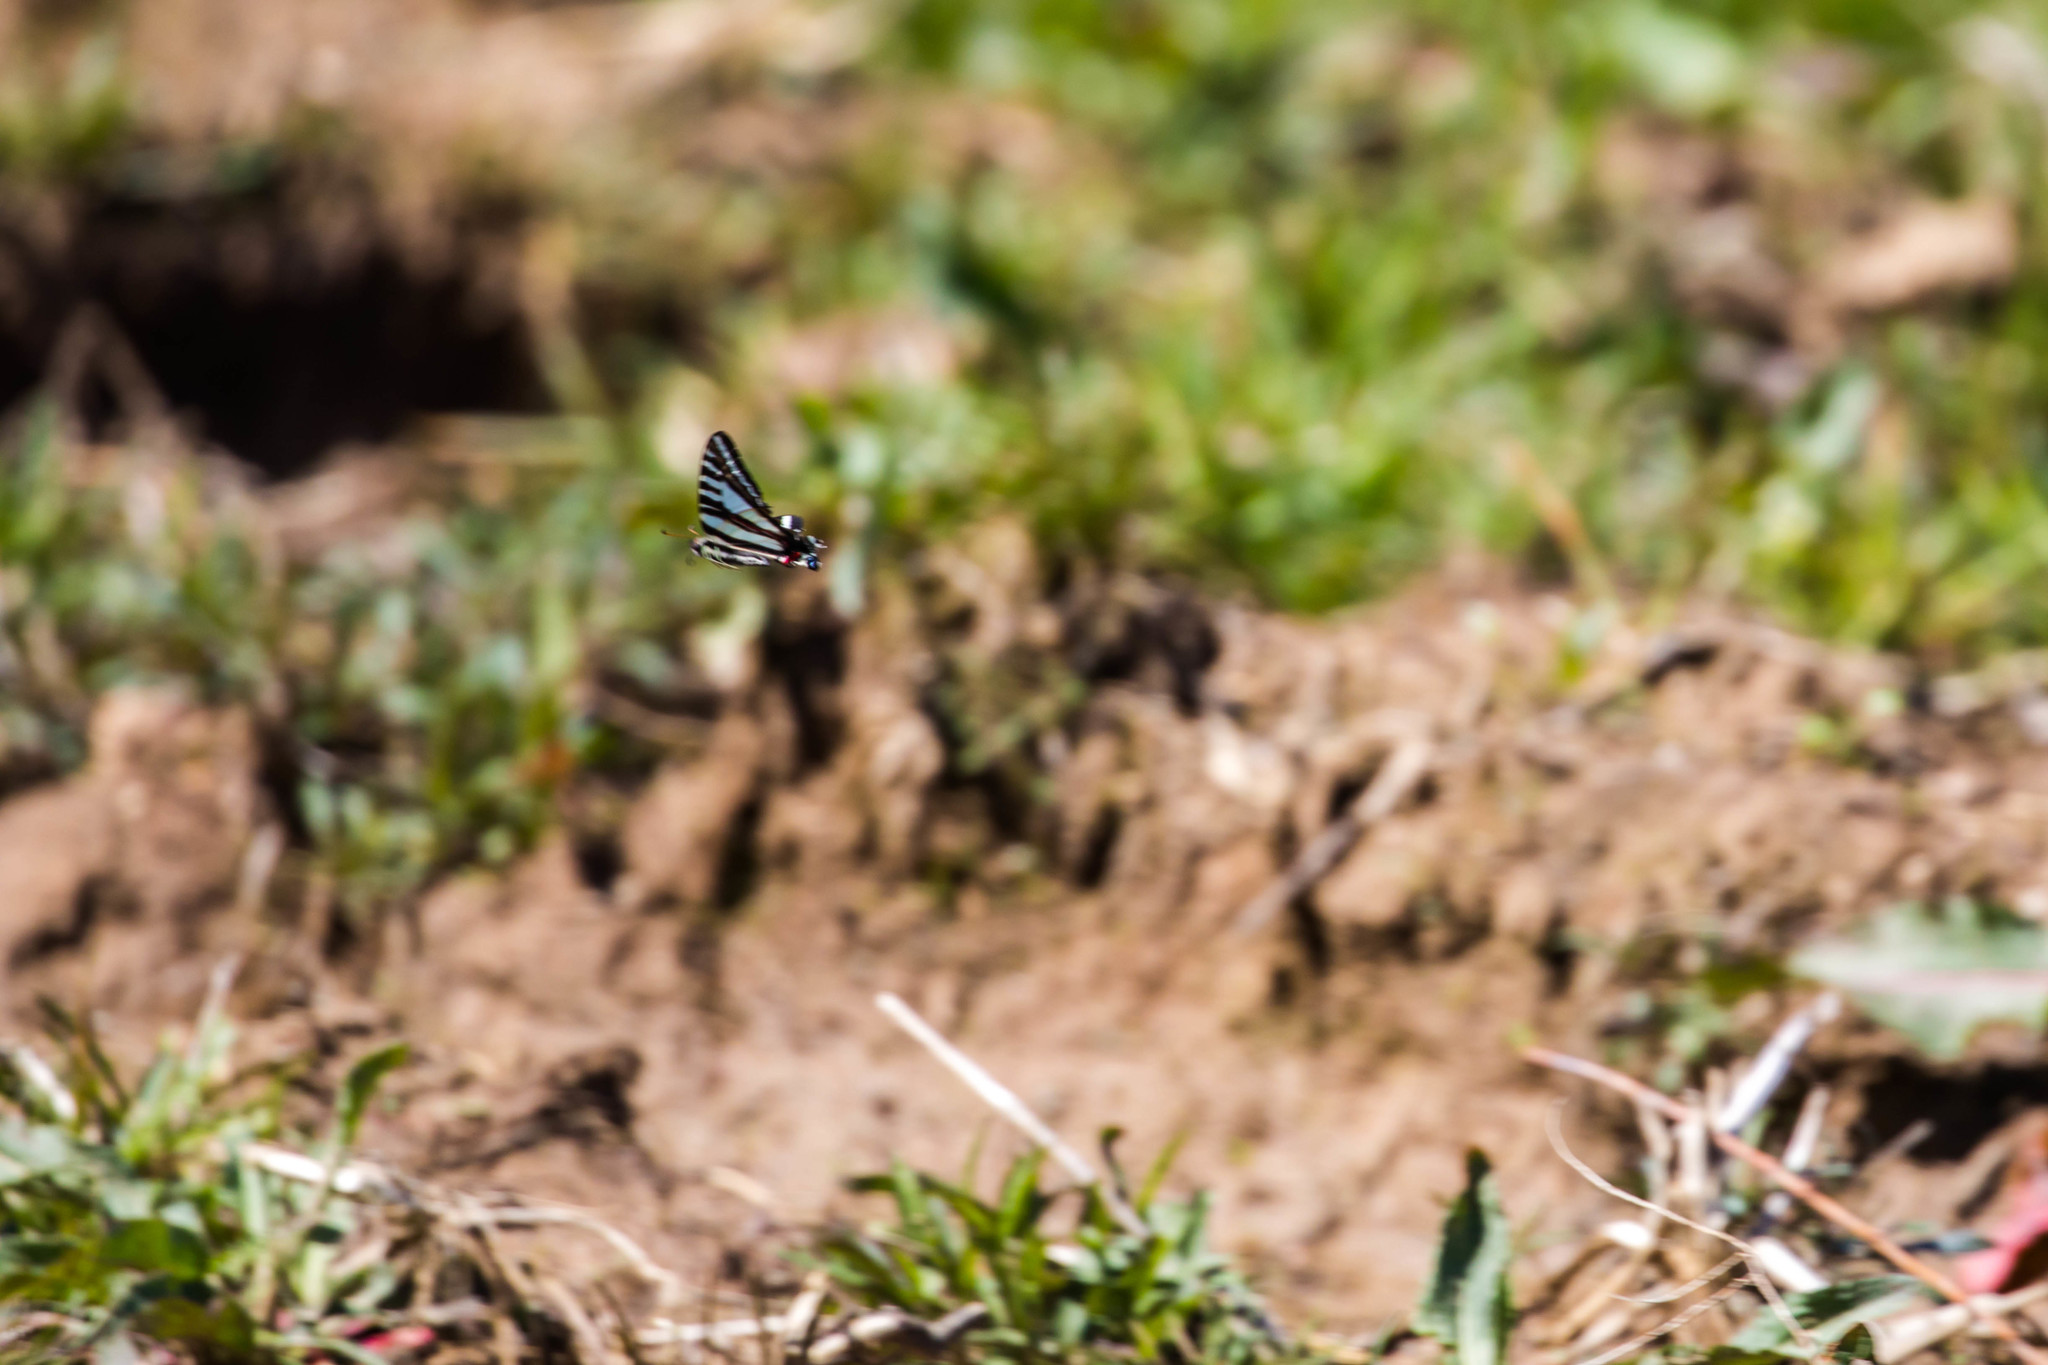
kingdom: Animalia
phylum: Arthropoda
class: Insecta
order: Lepidoptera
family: Papilionidae
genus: Protographium
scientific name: Protographium marcellus
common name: Zebra swallowtail
